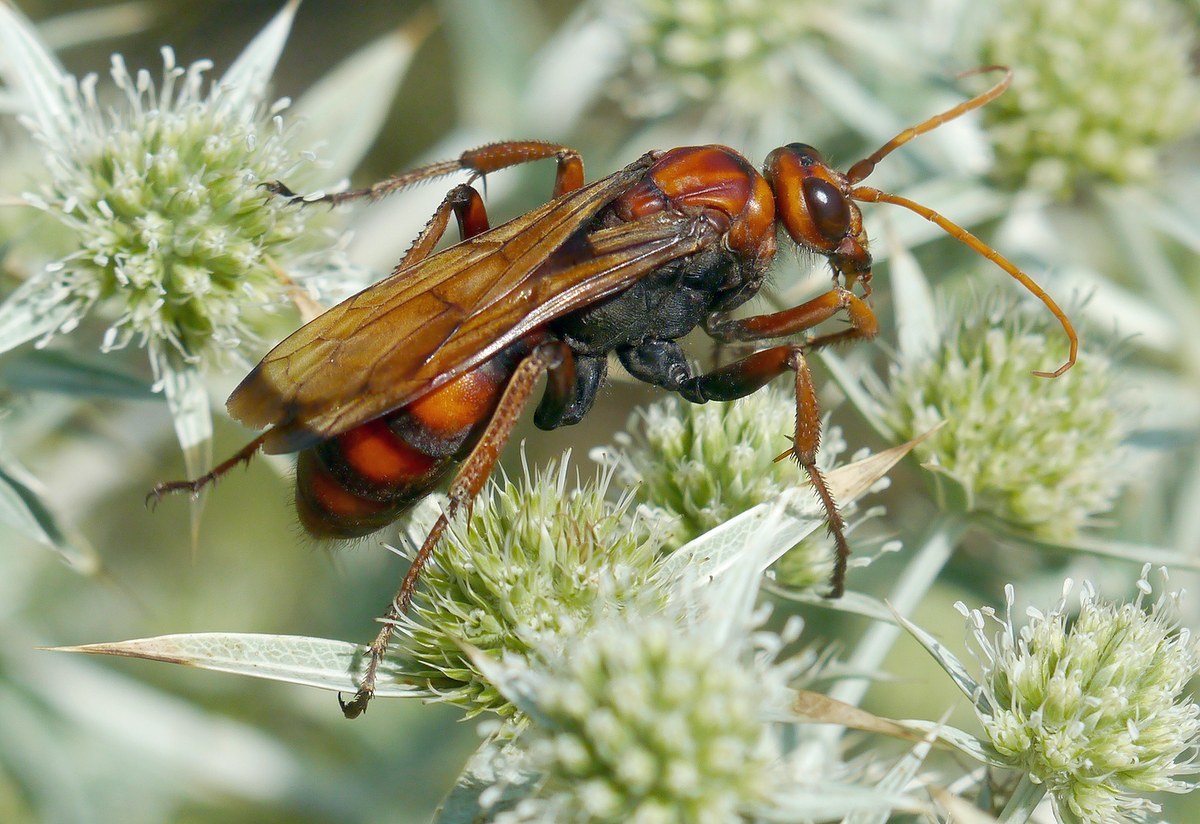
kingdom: Animalia
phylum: Arthropoda
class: Insecta
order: Hymenoptera
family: Pompilidae
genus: Cryptocheilus
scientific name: Cryptocheilus rubellus
